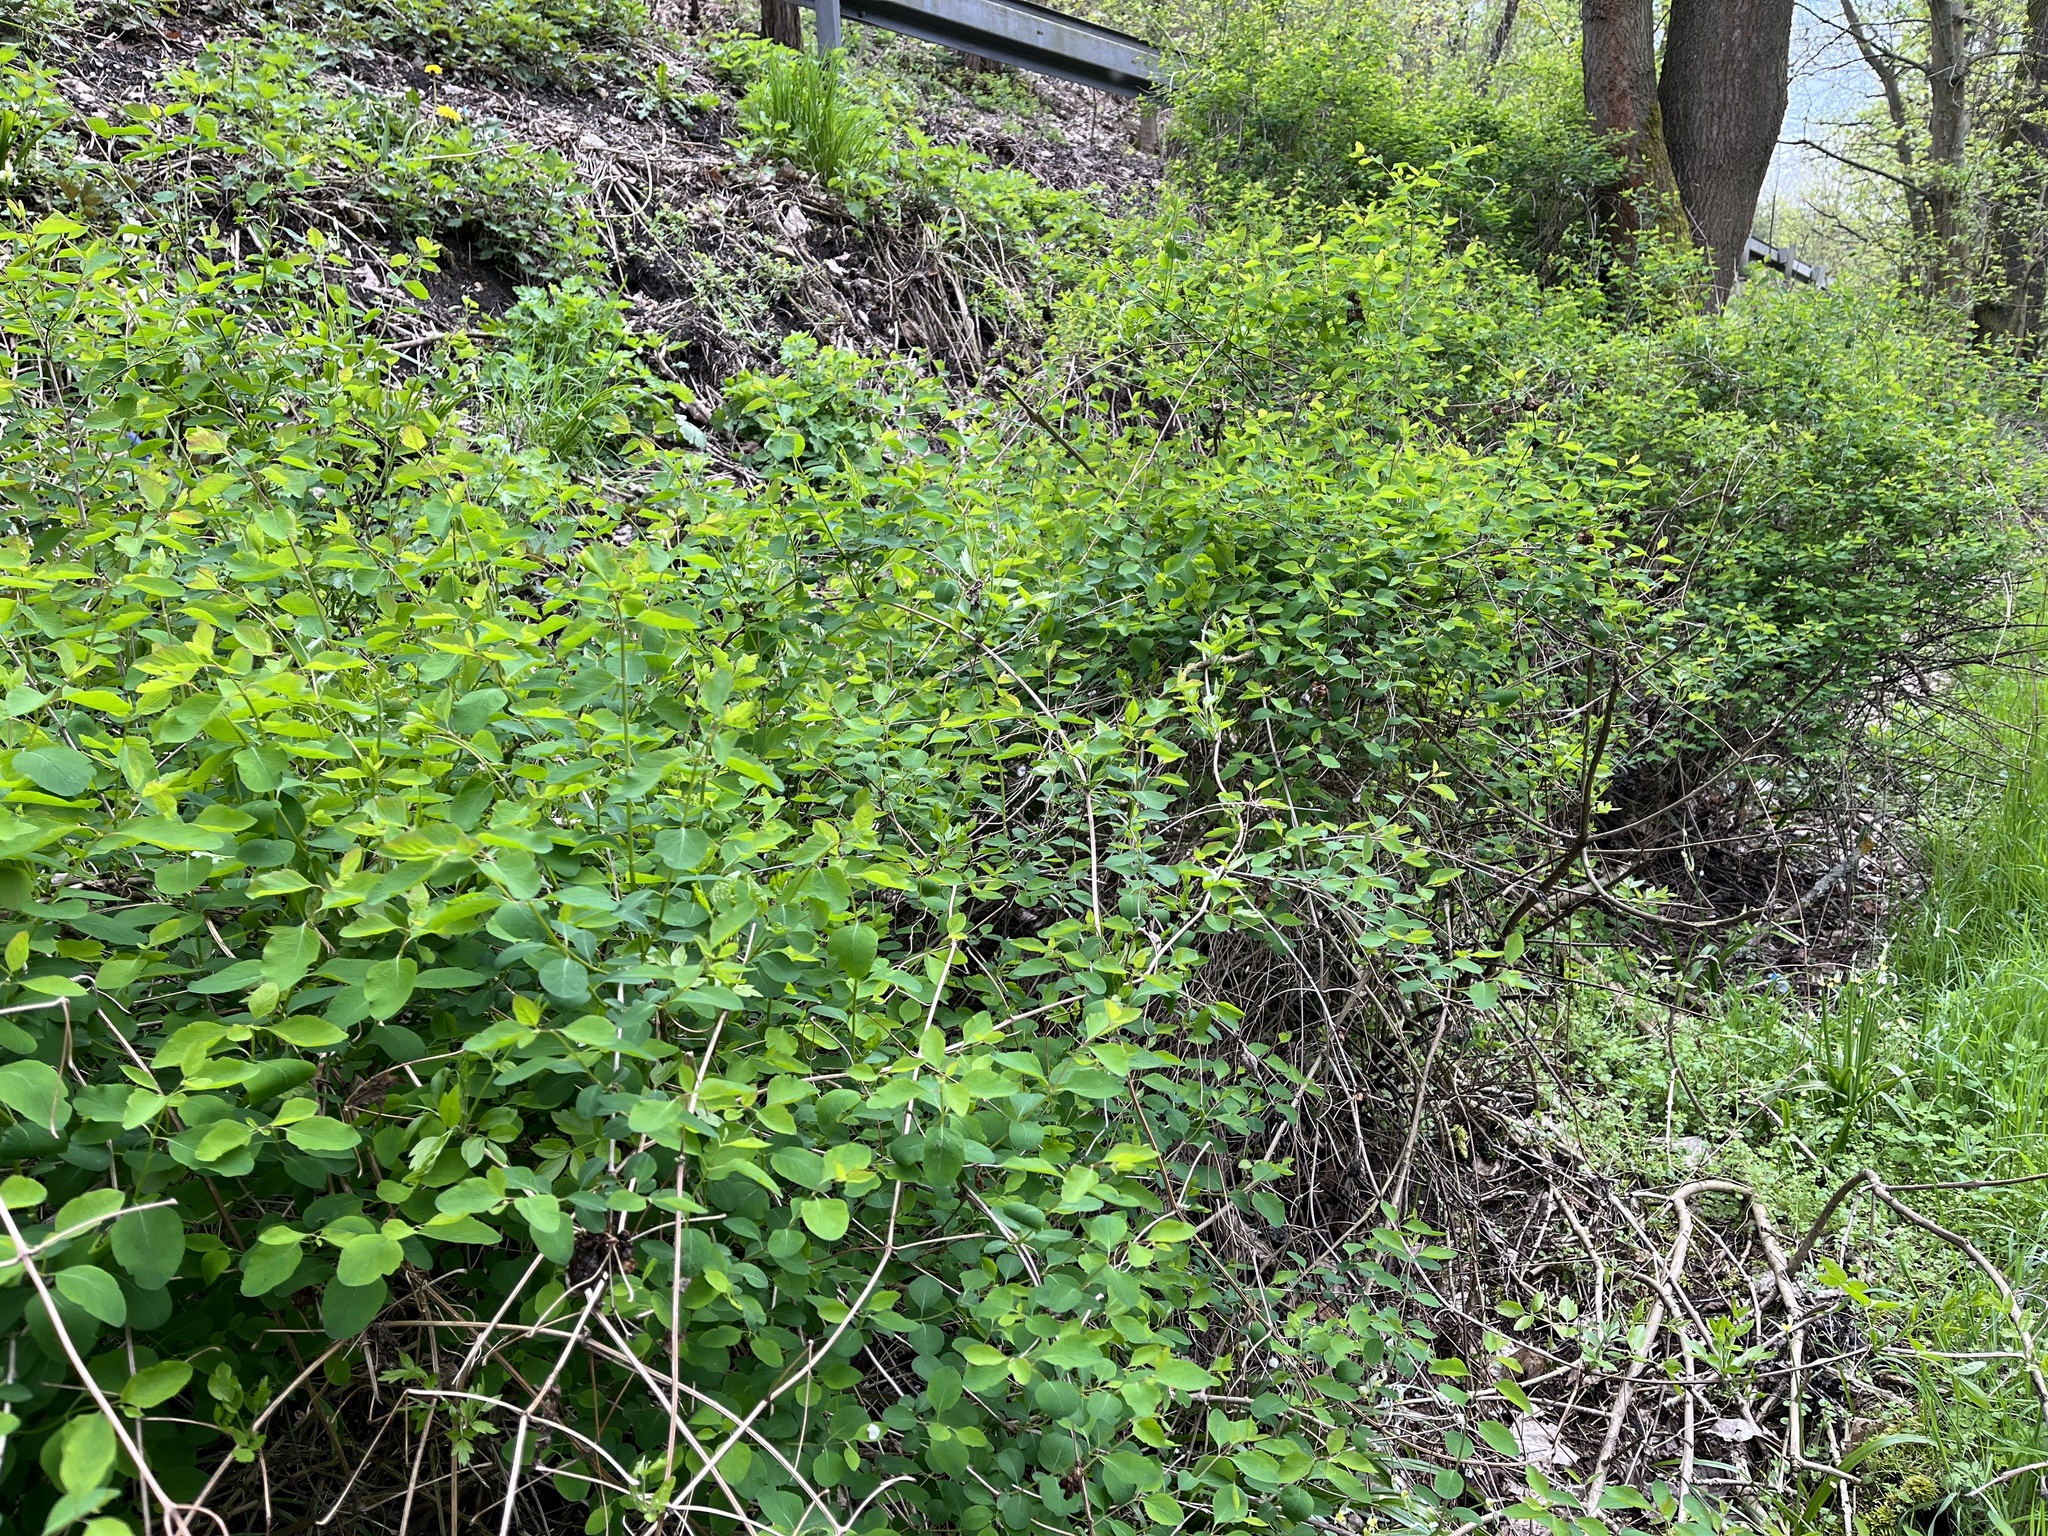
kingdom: Plantae
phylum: Tracheophyta
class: Magnoliopsida
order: Dipsacales
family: Caprifoliaceae
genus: Symphoricarpos
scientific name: Symphoricarpos albus
